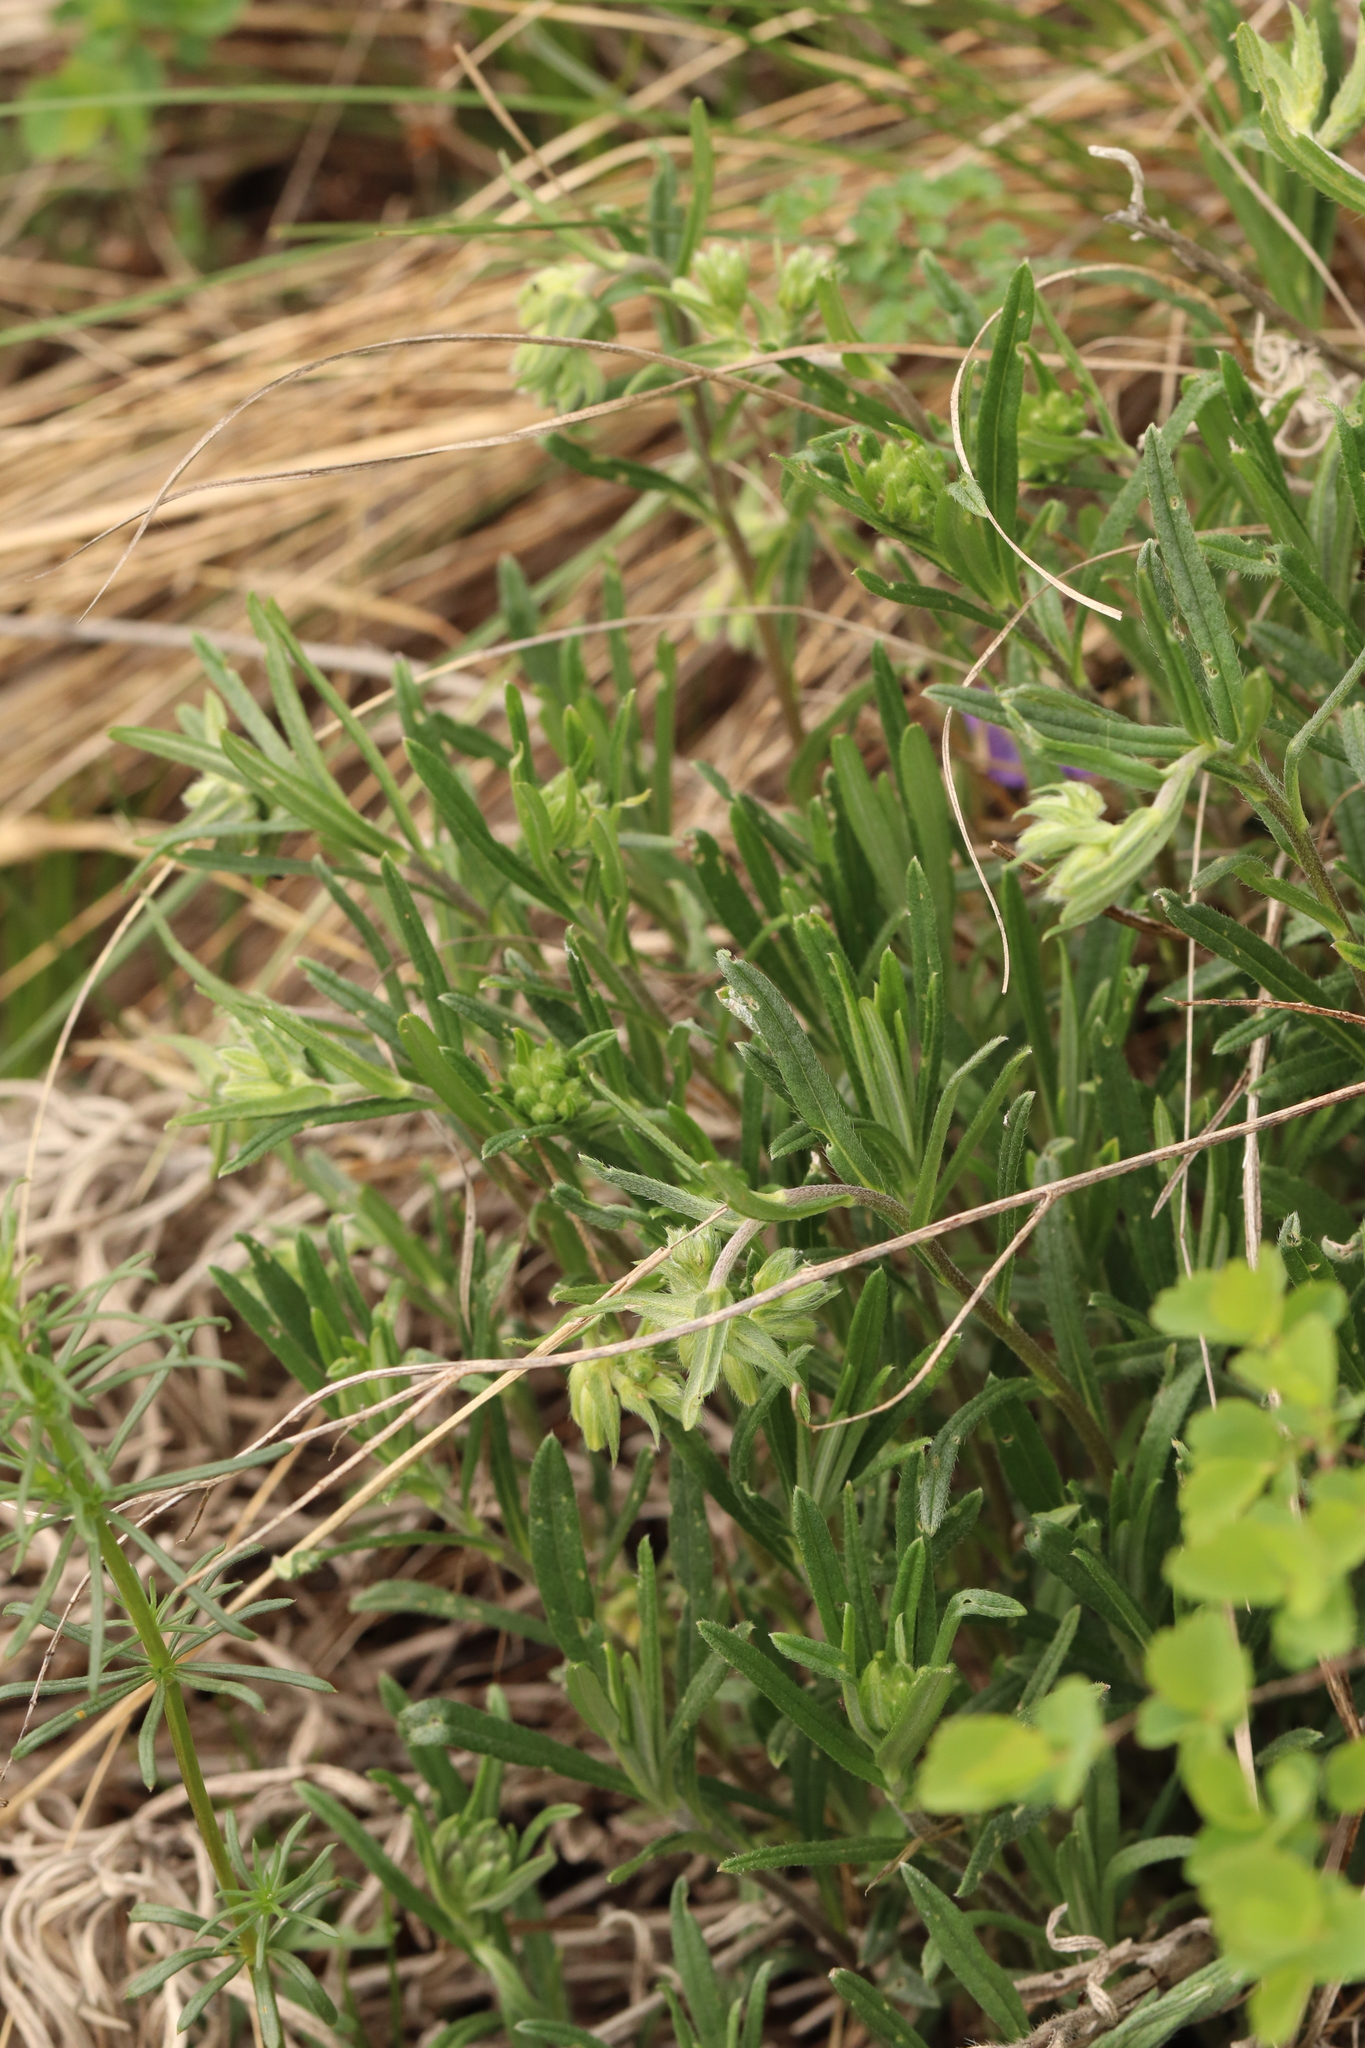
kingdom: Plantae
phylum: Tracheophyta
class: Magnoliopsida
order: Boraginales
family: Boraginaceae
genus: Onosma
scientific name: Onosma simplicissima
